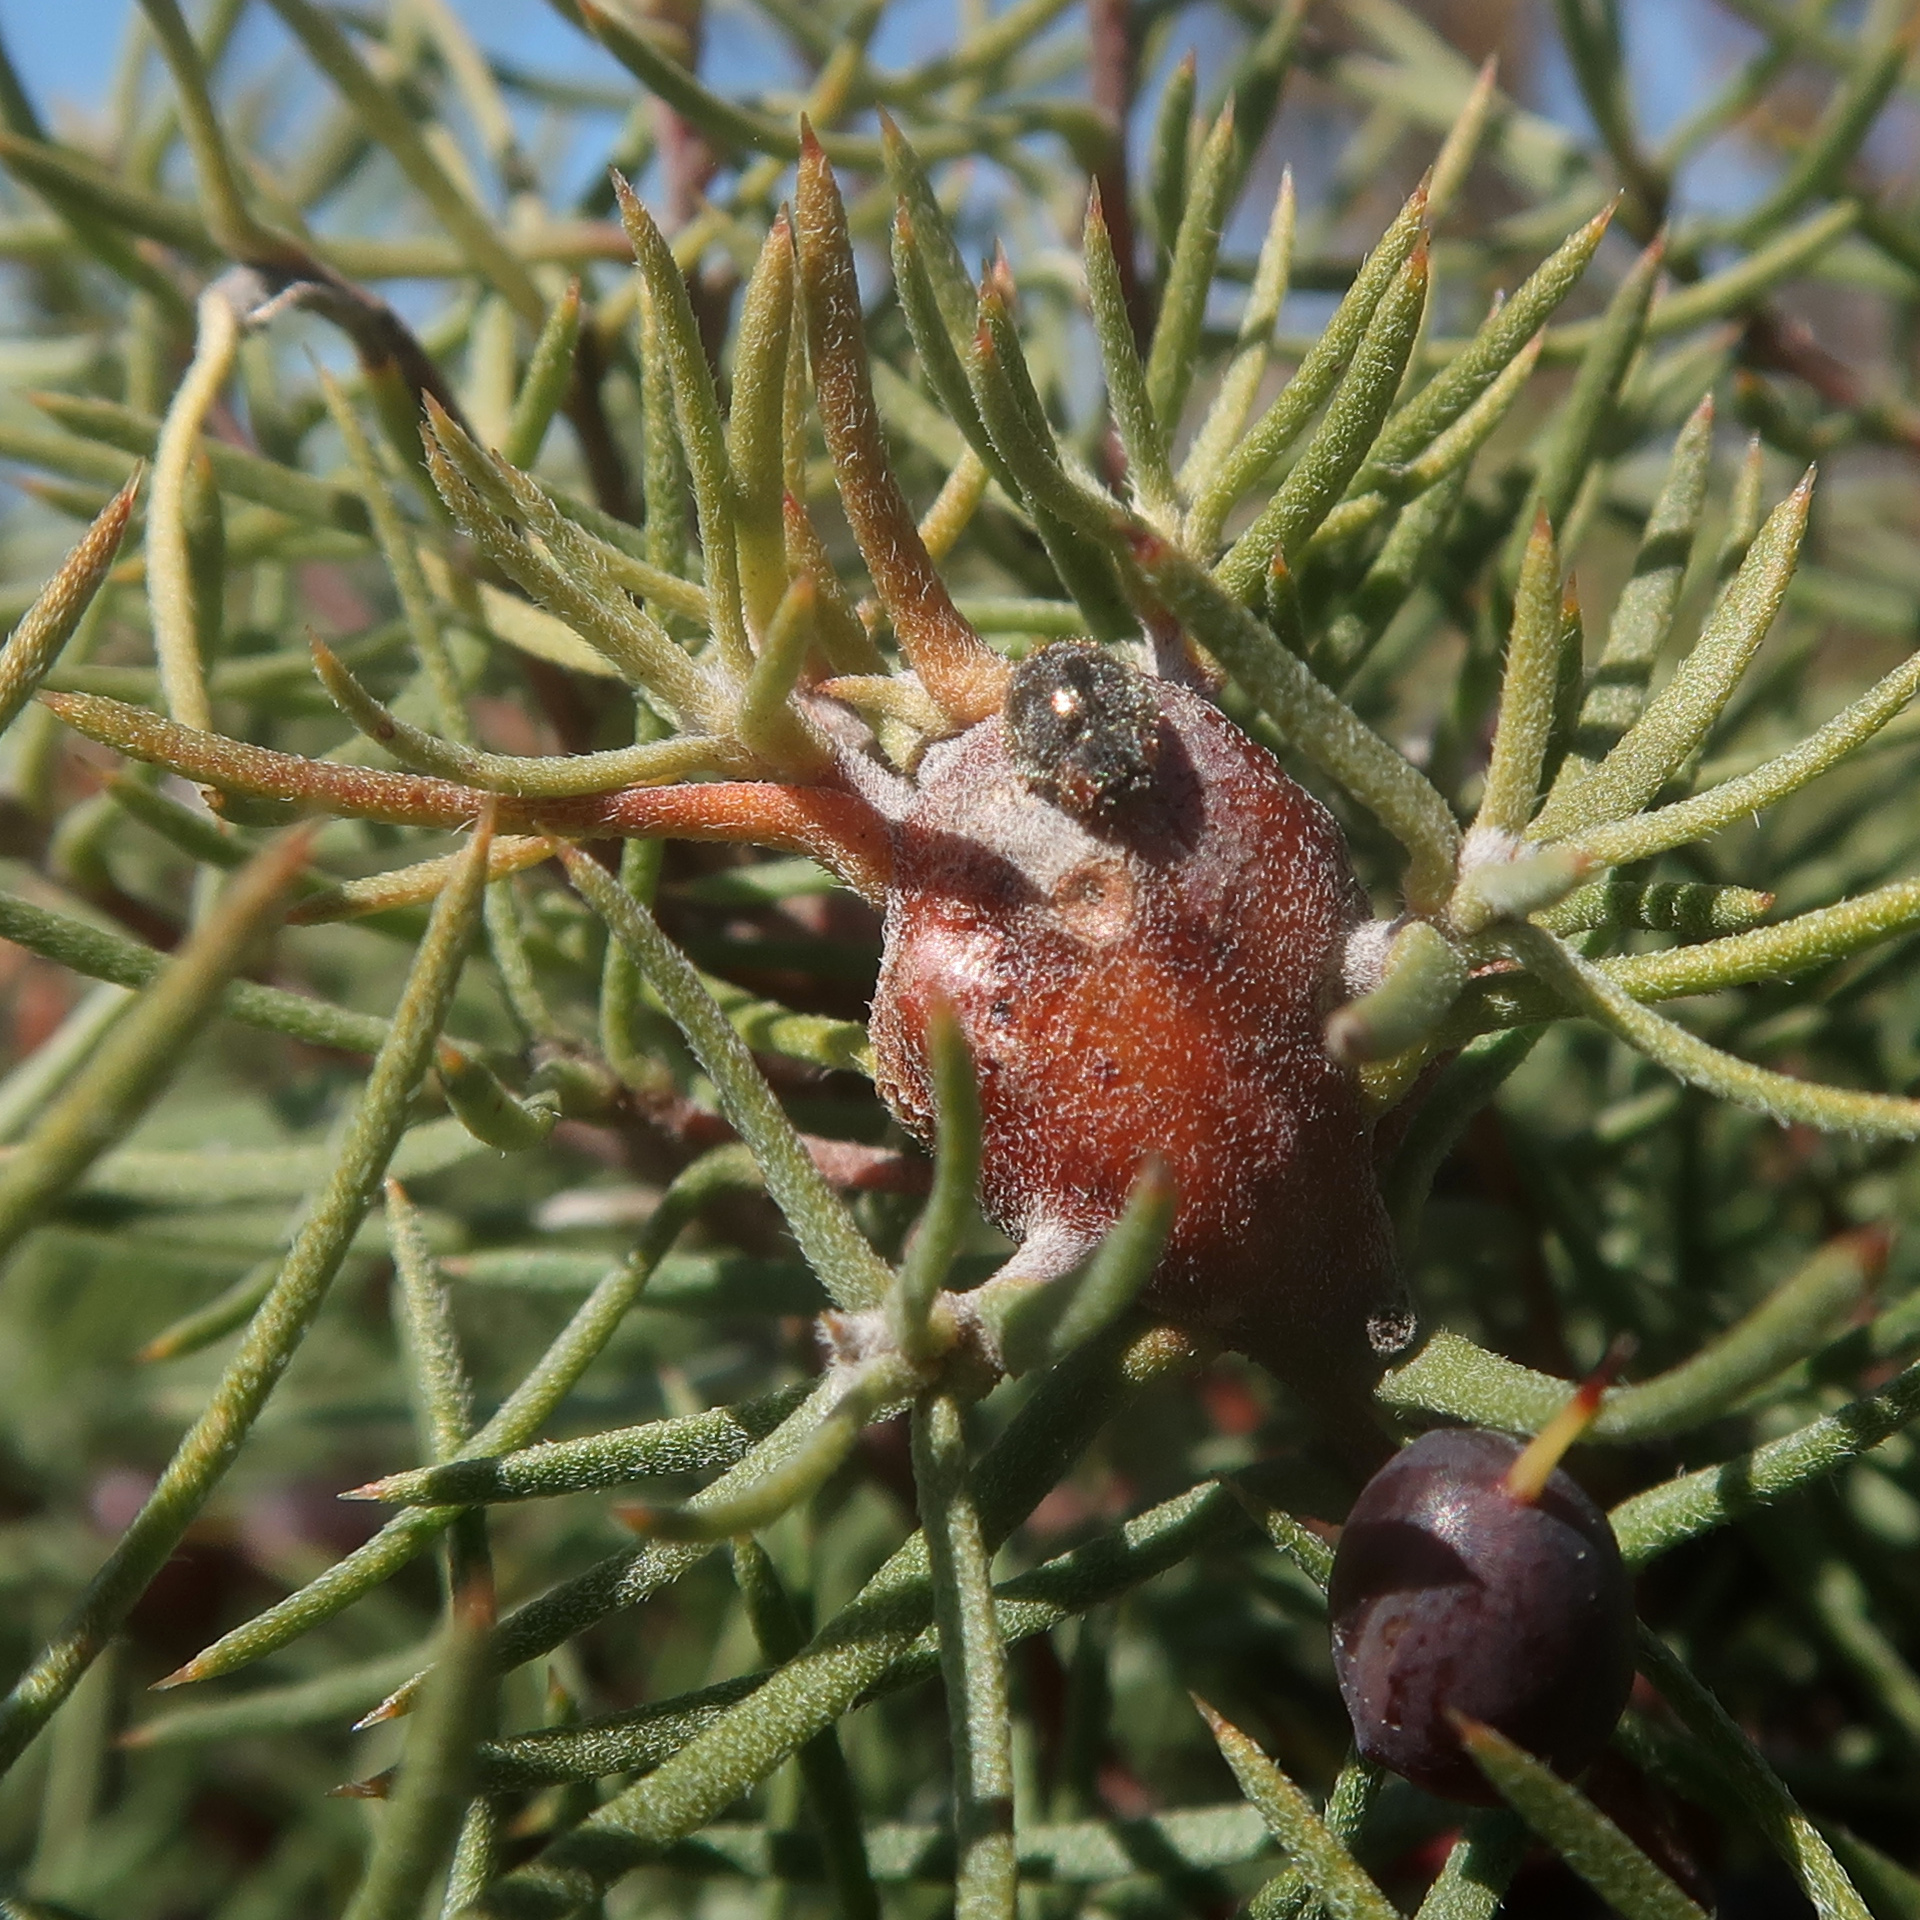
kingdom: Plantae
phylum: Tracheophyta
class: Magnoliopsida
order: Proteales
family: Proteaceae
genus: Persoonia
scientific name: Persoonia juniperina
